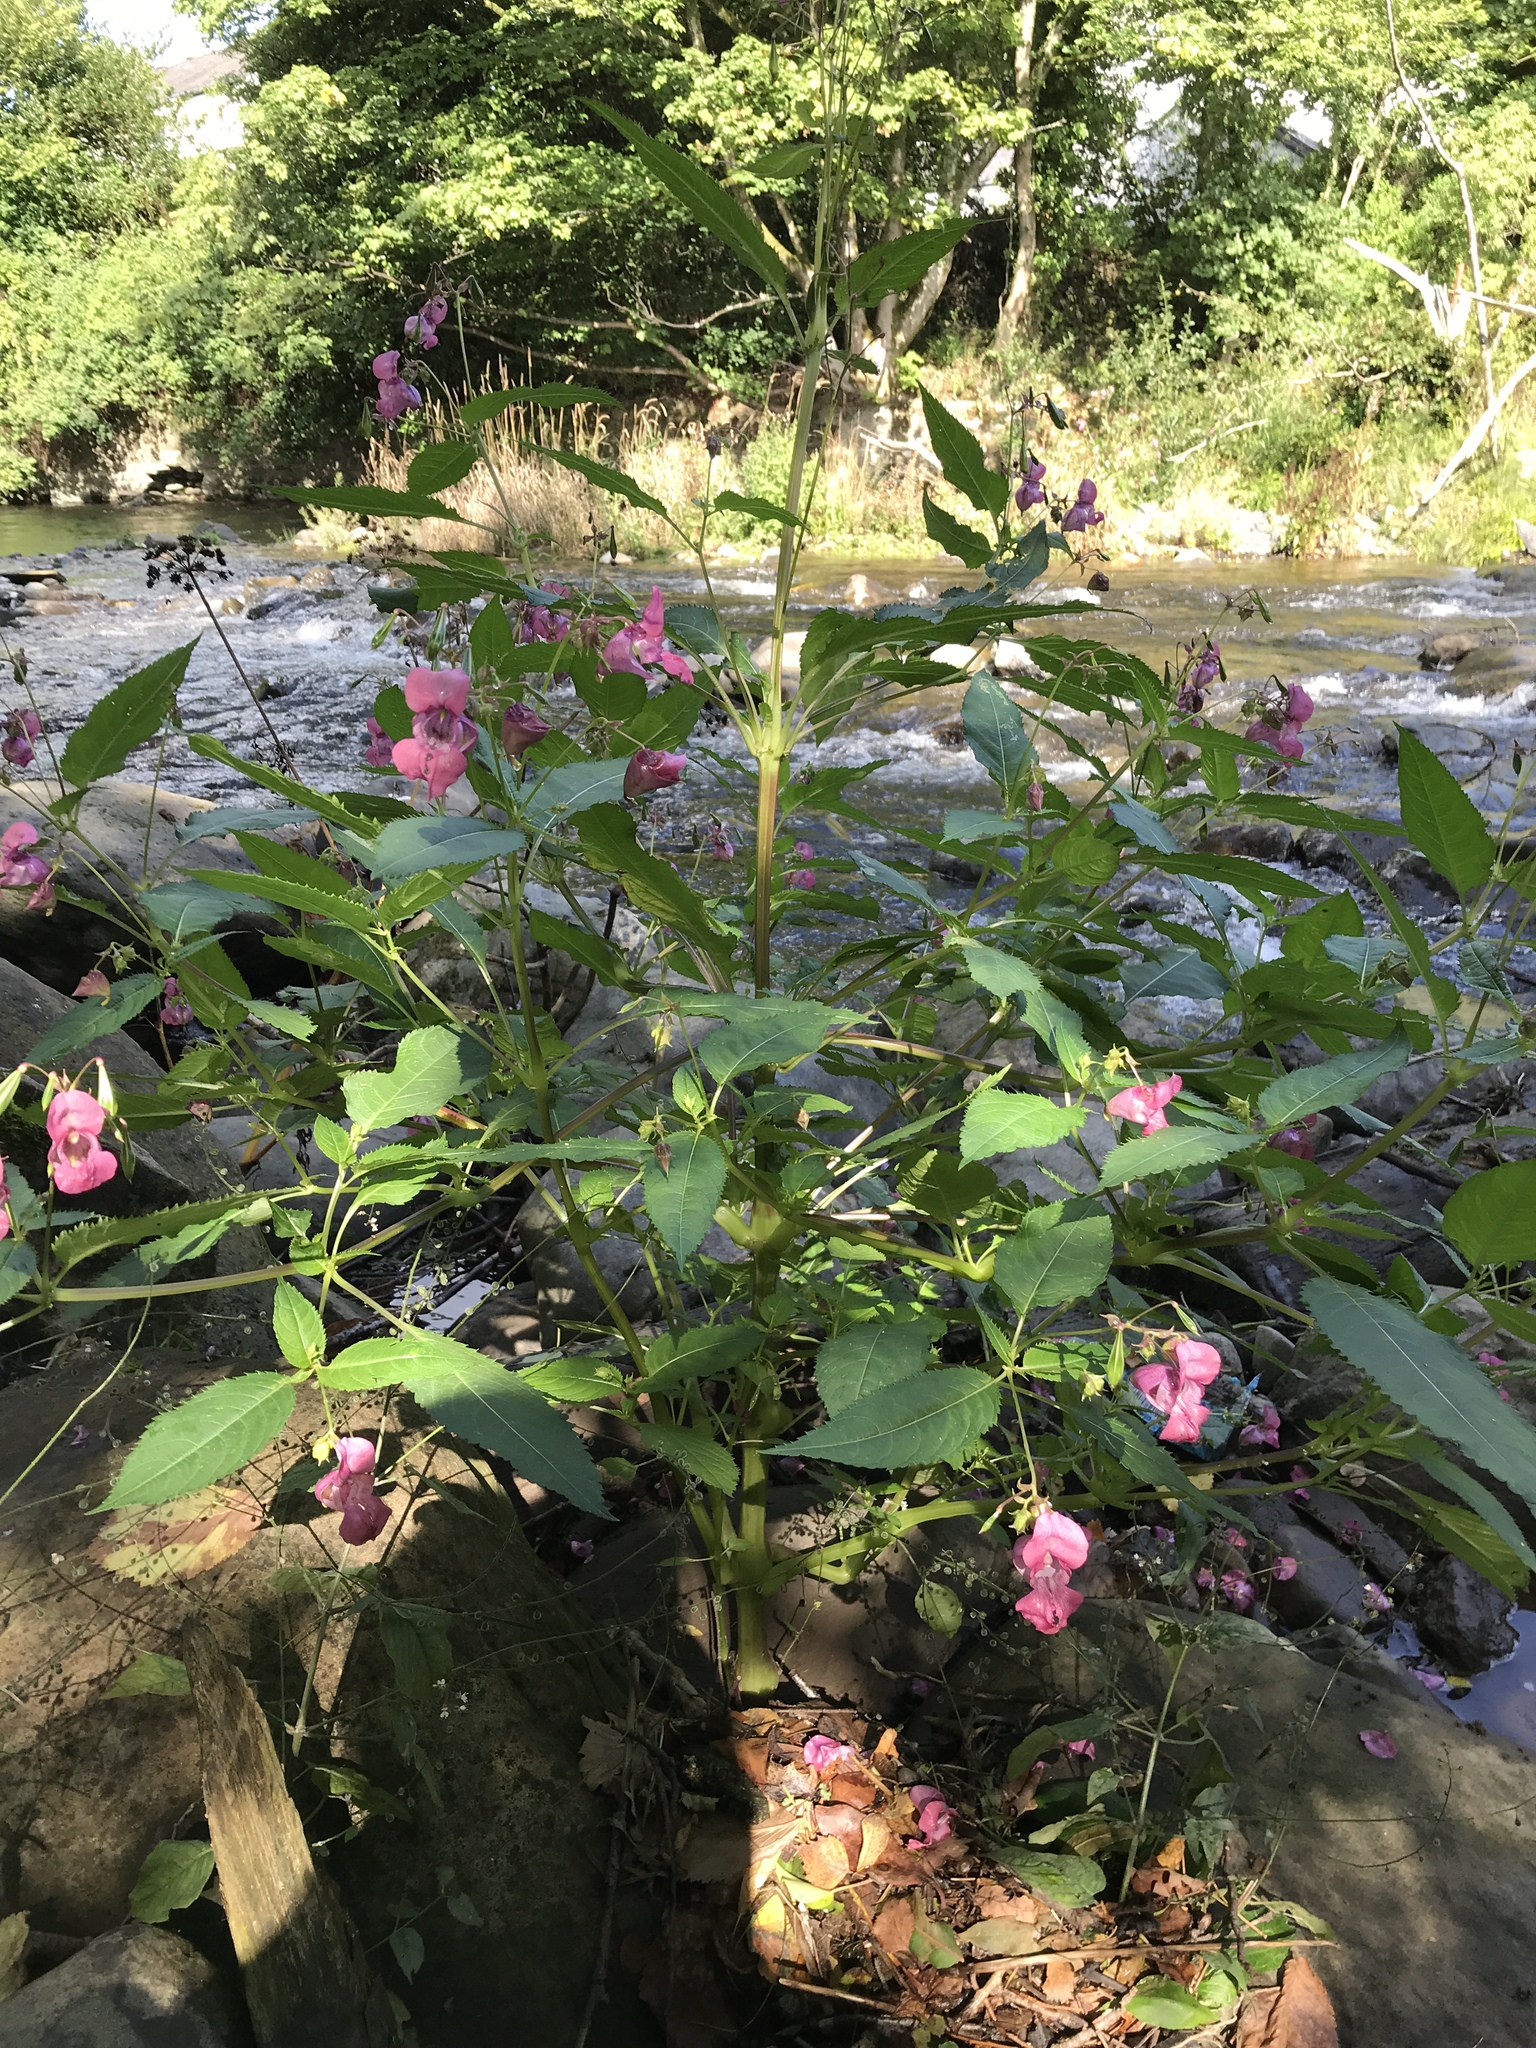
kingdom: Plantae
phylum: Tracheophyta
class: Magnoliopsida
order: Ericales
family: Balsaminaceae
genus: Impatiens
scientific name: Impatiens glandulifera
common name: Himalayan balsam
